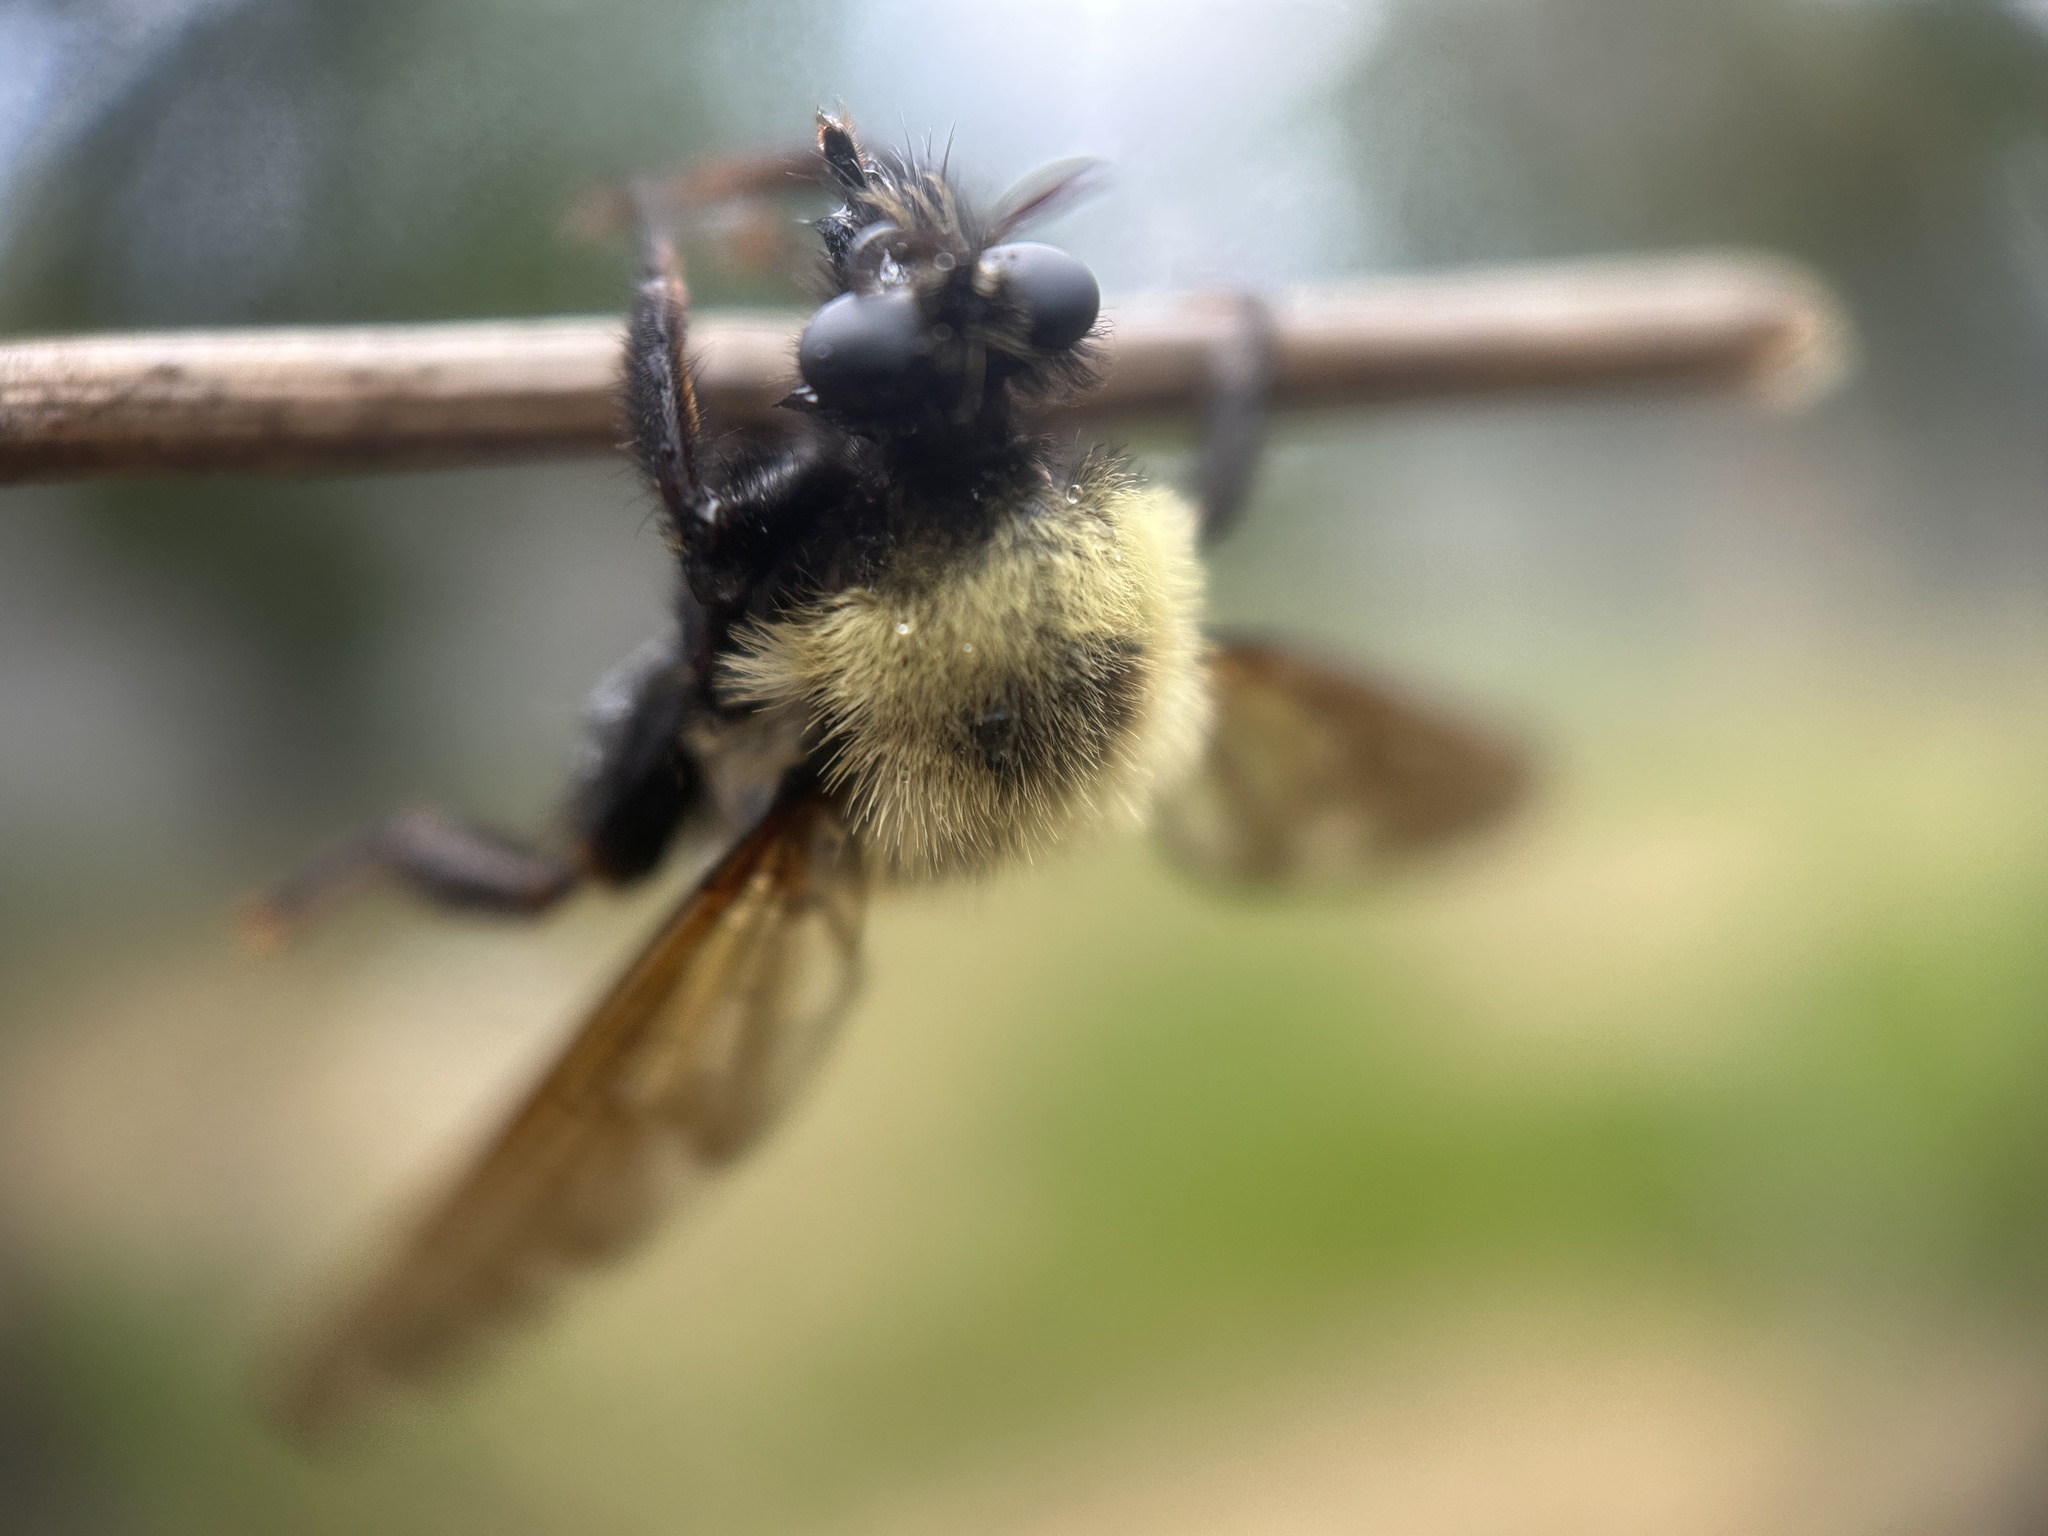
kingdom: Animalia
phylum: Arthropoda
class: Insecta
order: Diptera
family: Asilidae
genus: Laphria
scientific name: Laphria thoracica
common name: Bumble bee mimic robber fly
